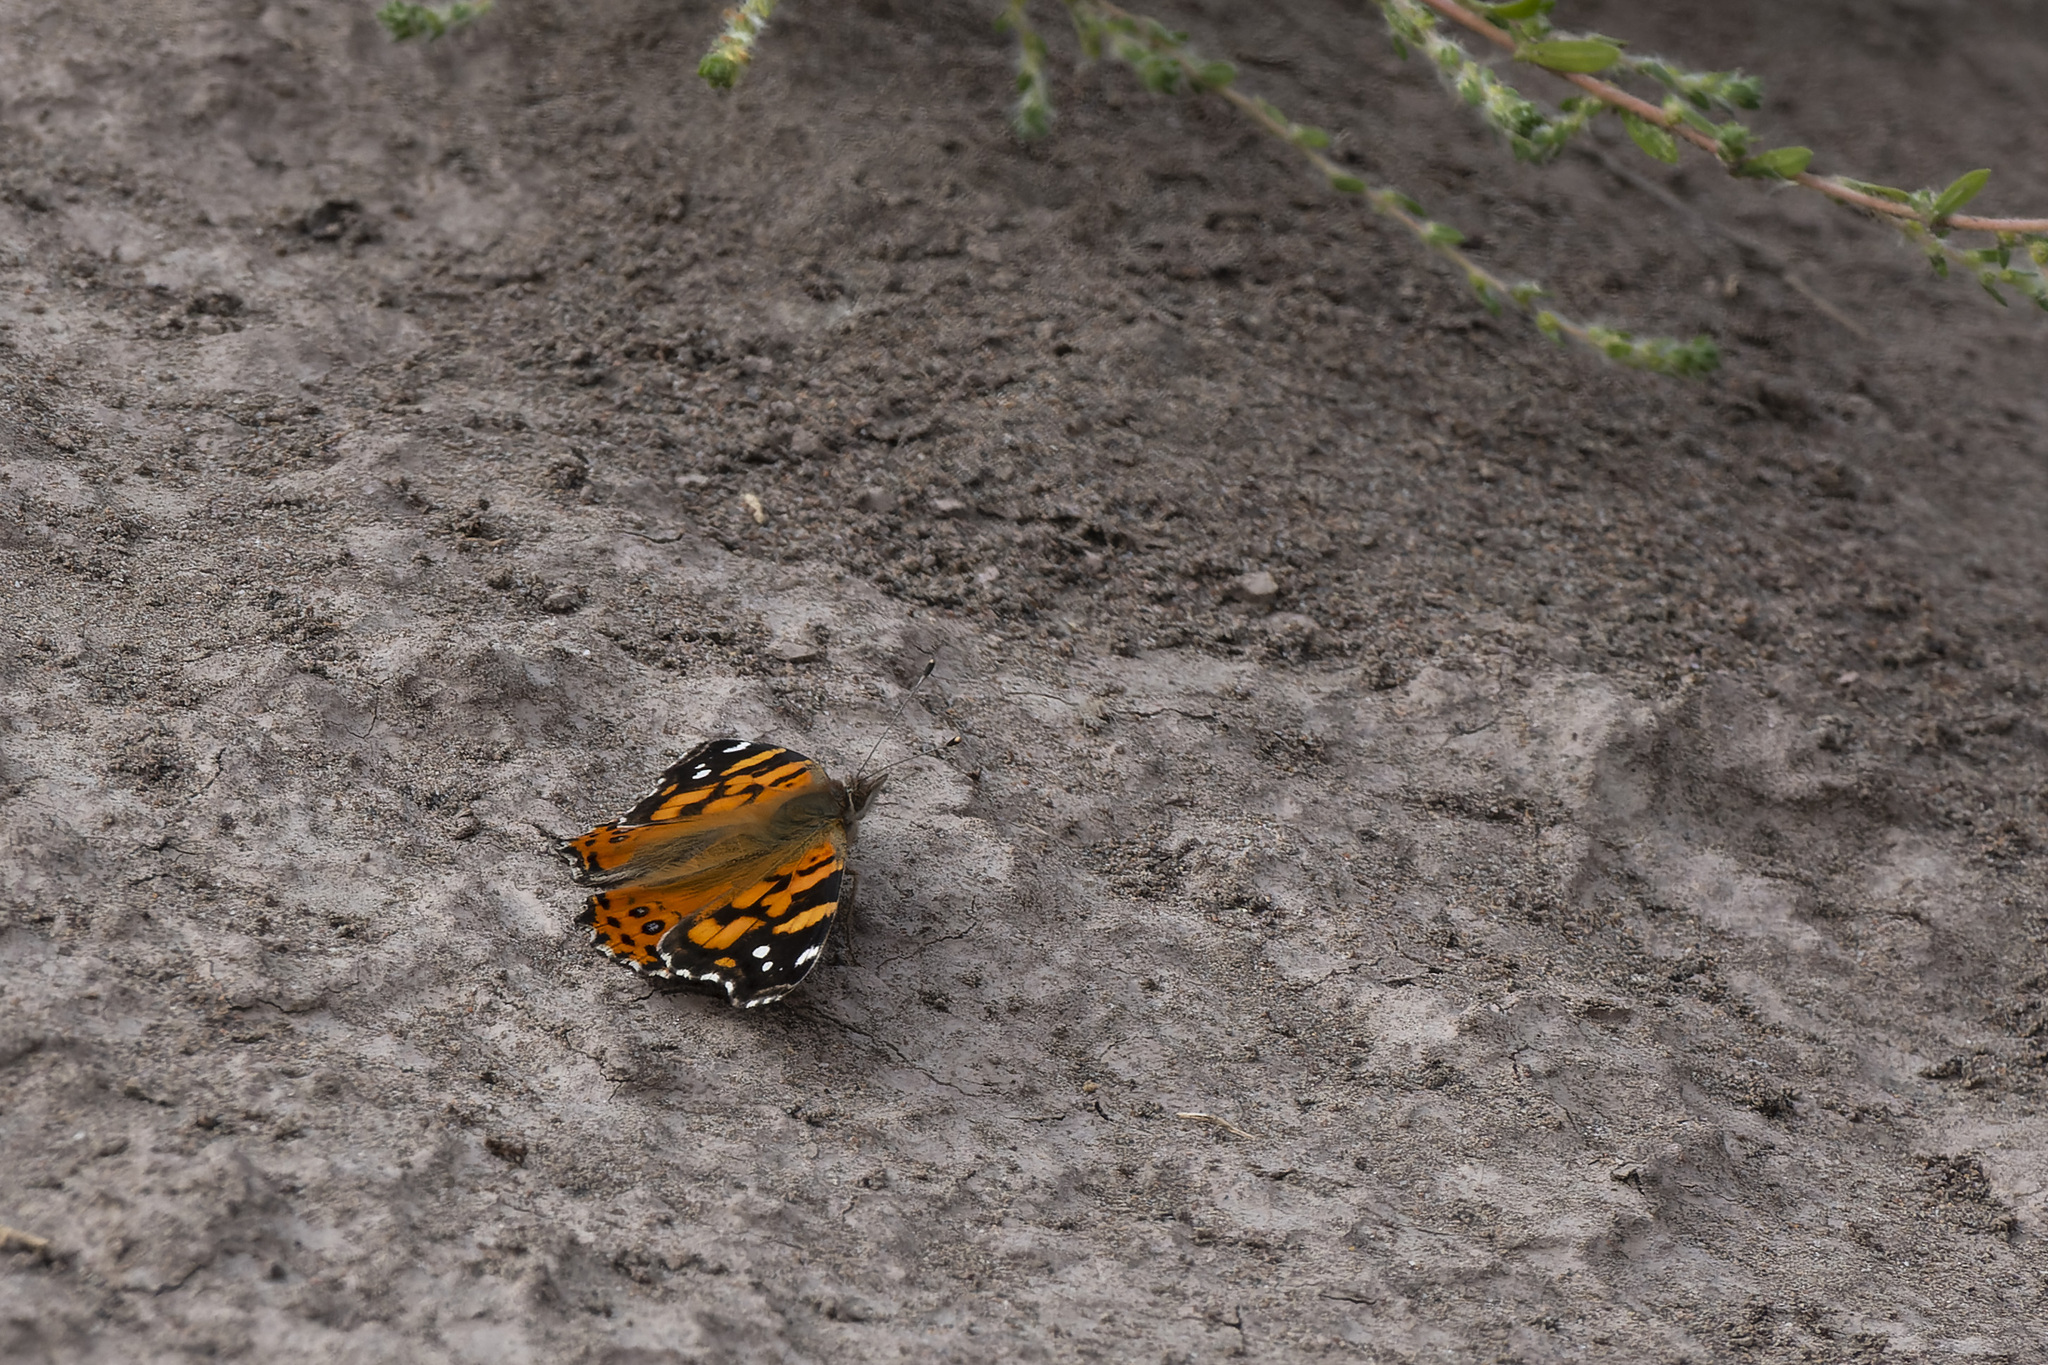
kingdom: Animalia
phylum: Arthropoda
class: Insecta
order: Lepidoptera
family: Nymphalidae
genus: Vanessa
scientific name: Vanessa carye
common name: Subtropical lady
